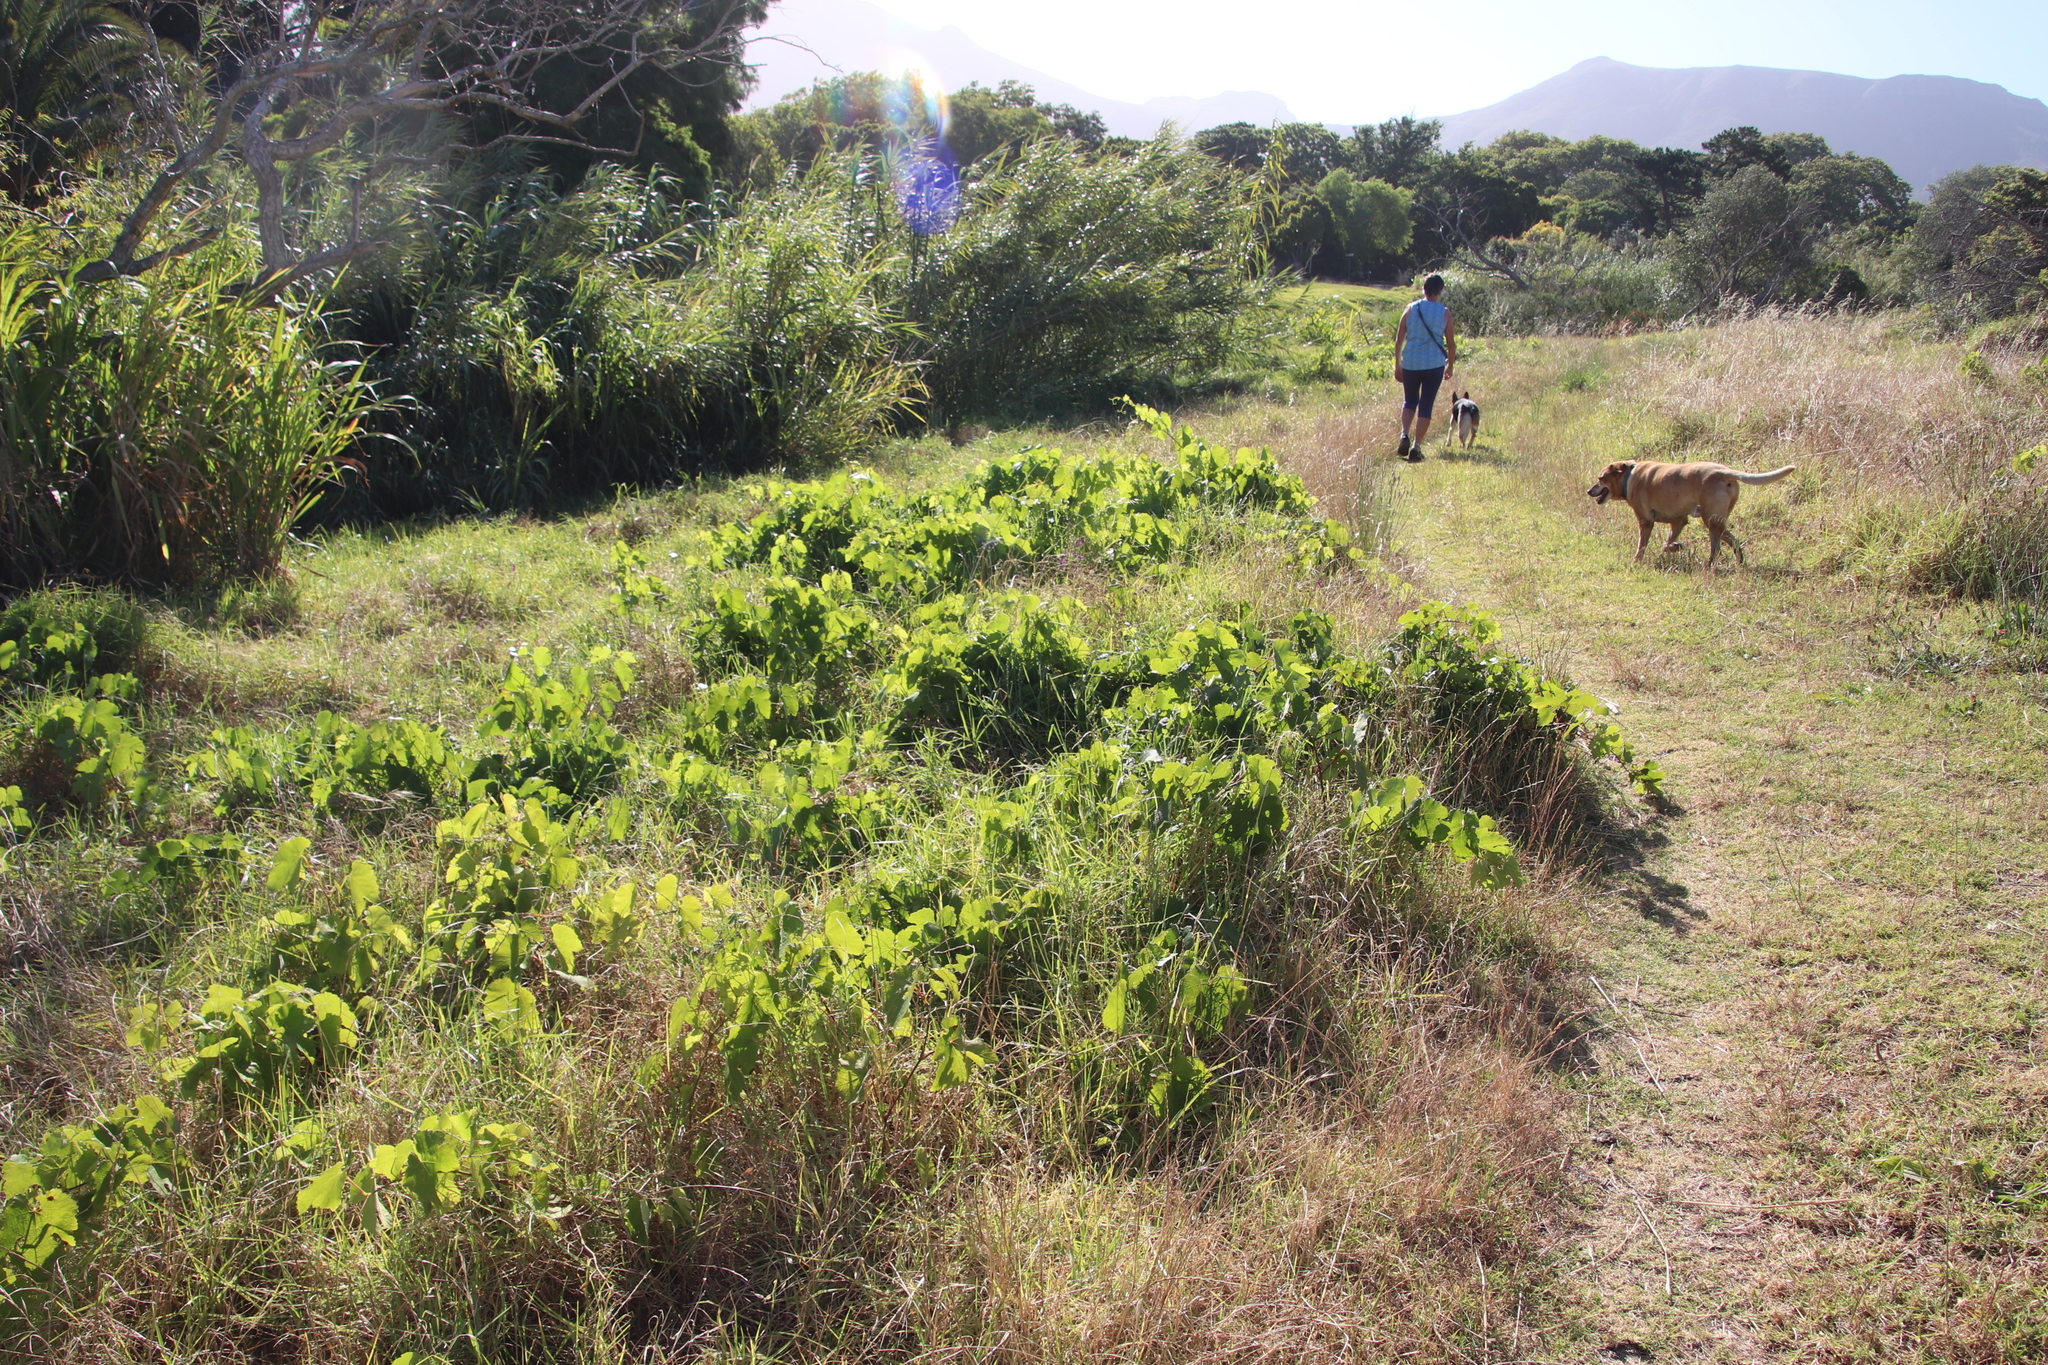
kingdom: Plantae
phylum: Tracheophyta
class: Magnoliopsida
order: Vitales
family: Vitaceae
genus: Vitis
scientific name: Vitis vinifera
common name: Grape-vine
